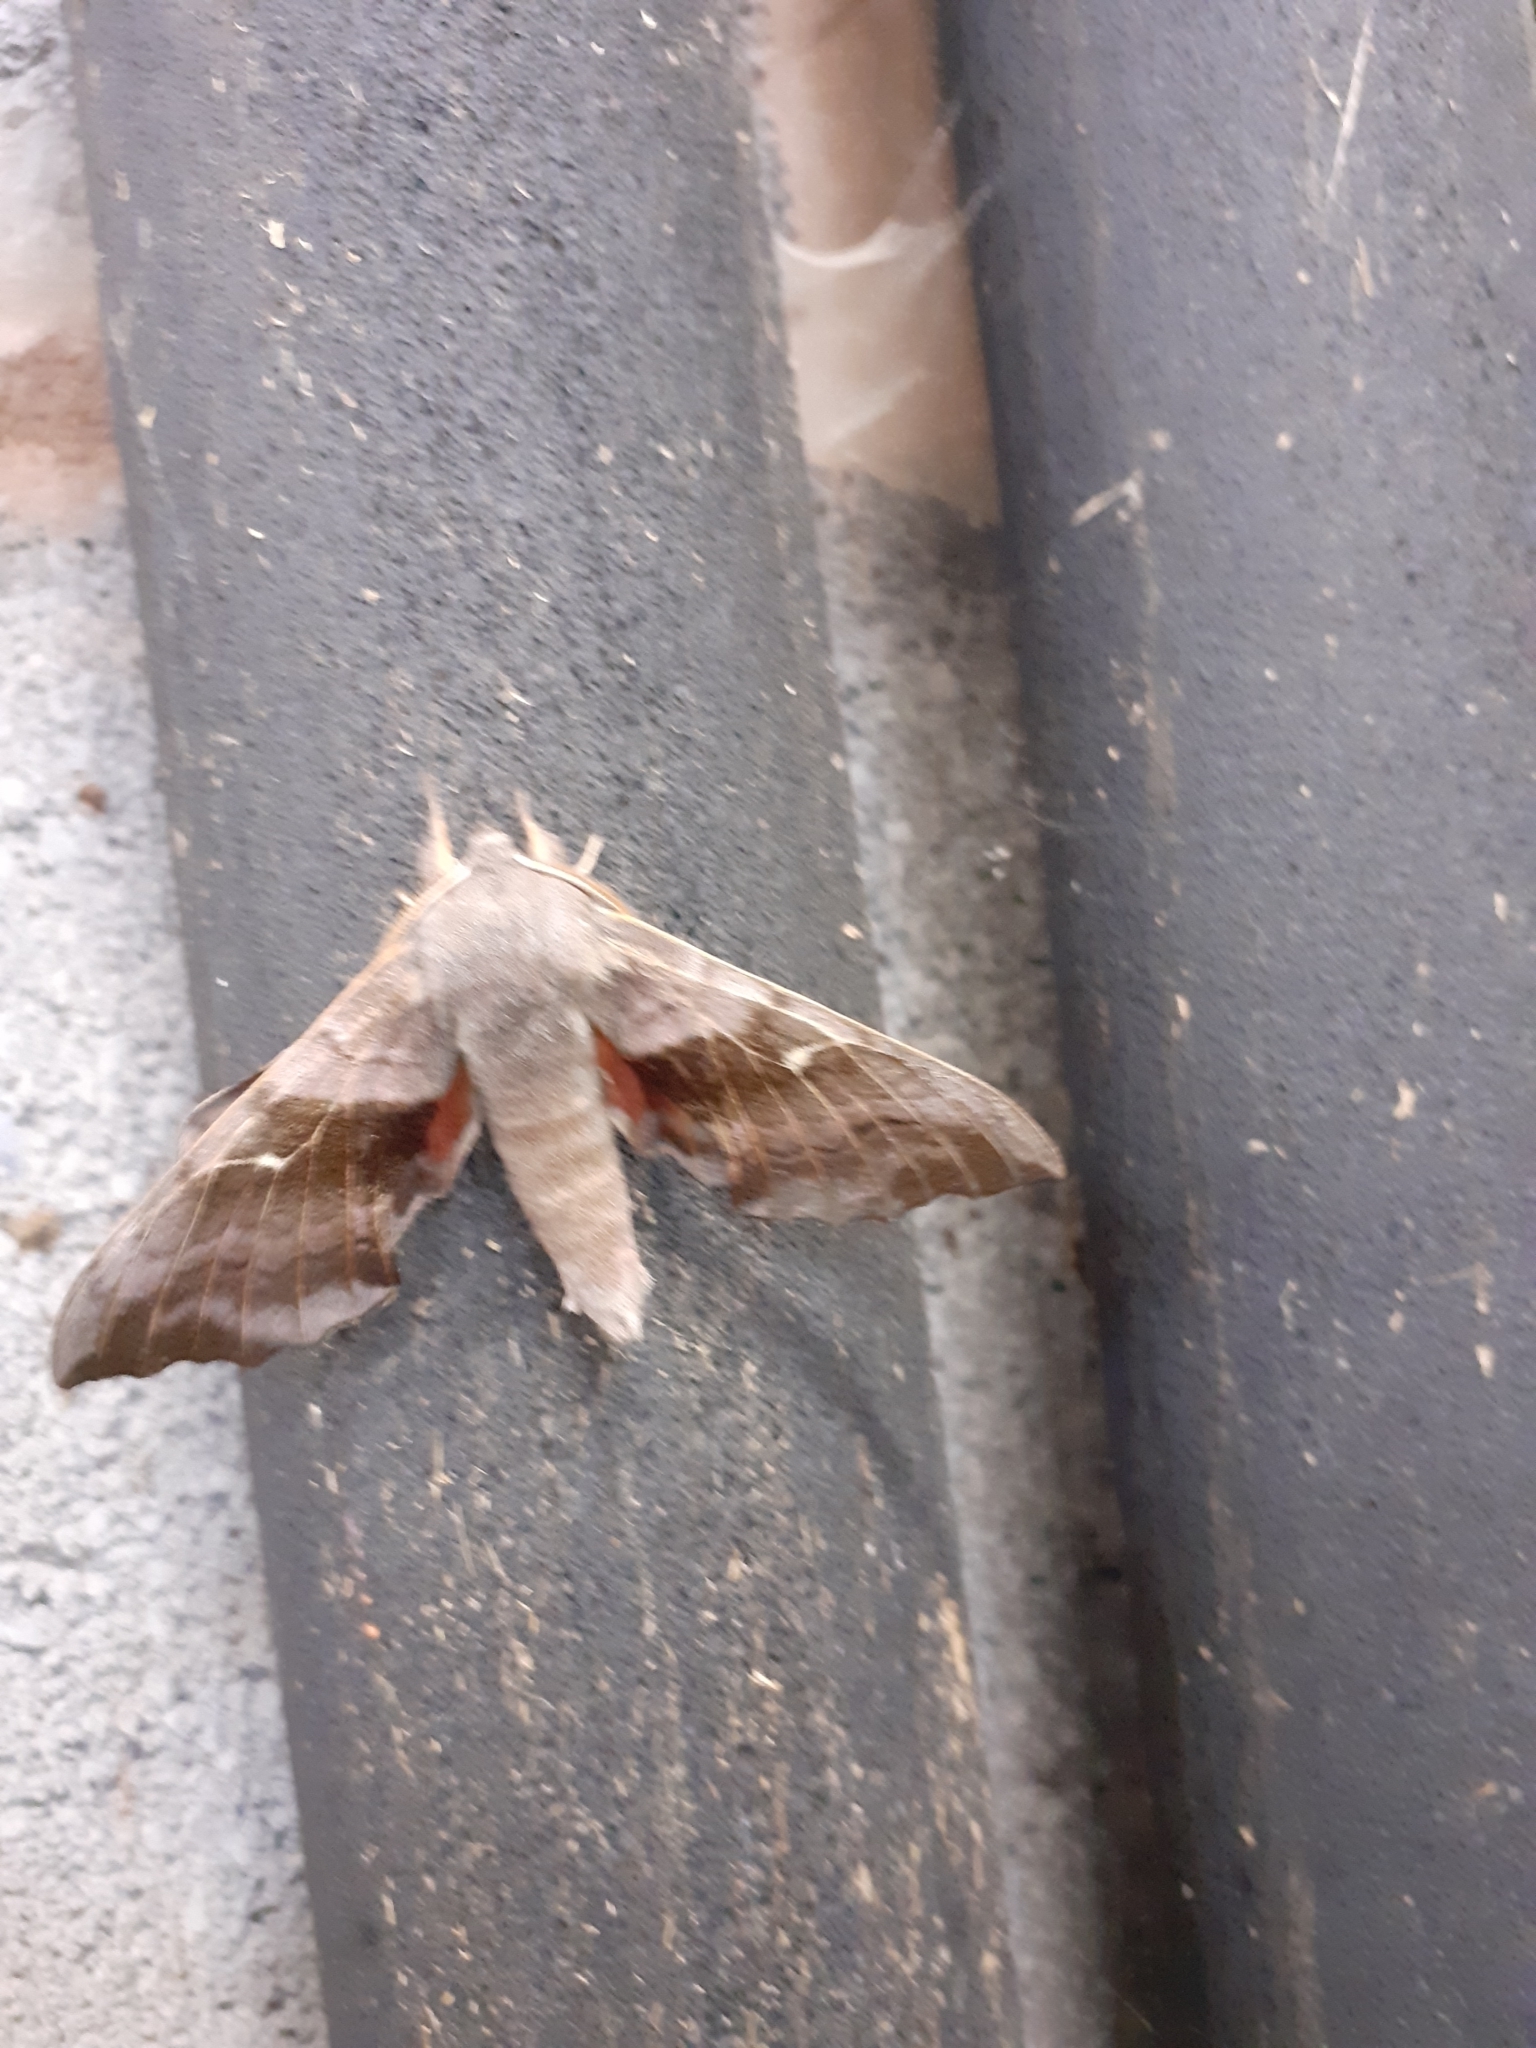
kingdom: Animalia
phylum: Arthropoda
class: Insecta
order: Lepidoptera
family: Sphingidae
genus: Laothoe
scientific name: Laothoe populi
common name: Poplar hawk-moth
